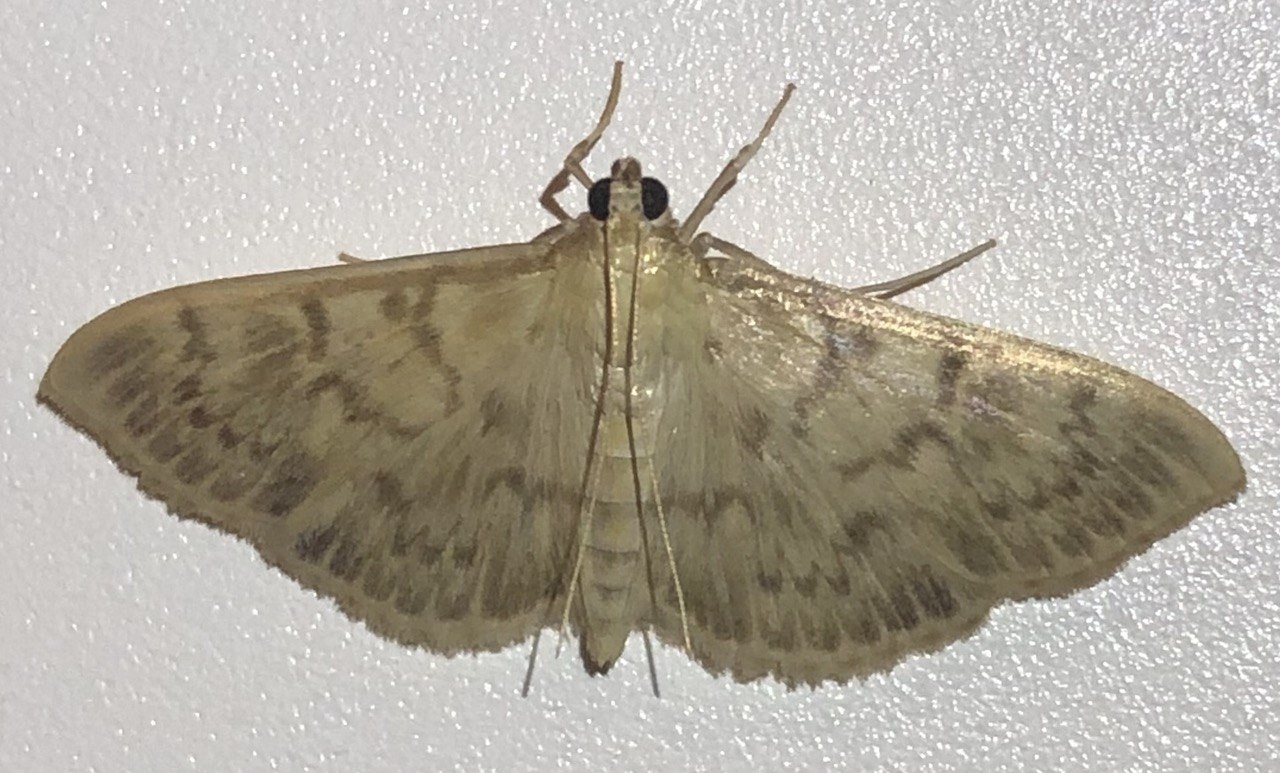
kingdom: Animalia
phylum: Arthropoda
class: Insecta
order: Lepidoptera
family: Crambidae
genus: Patania
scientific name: Patania ruralis
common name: Mother of pearl
